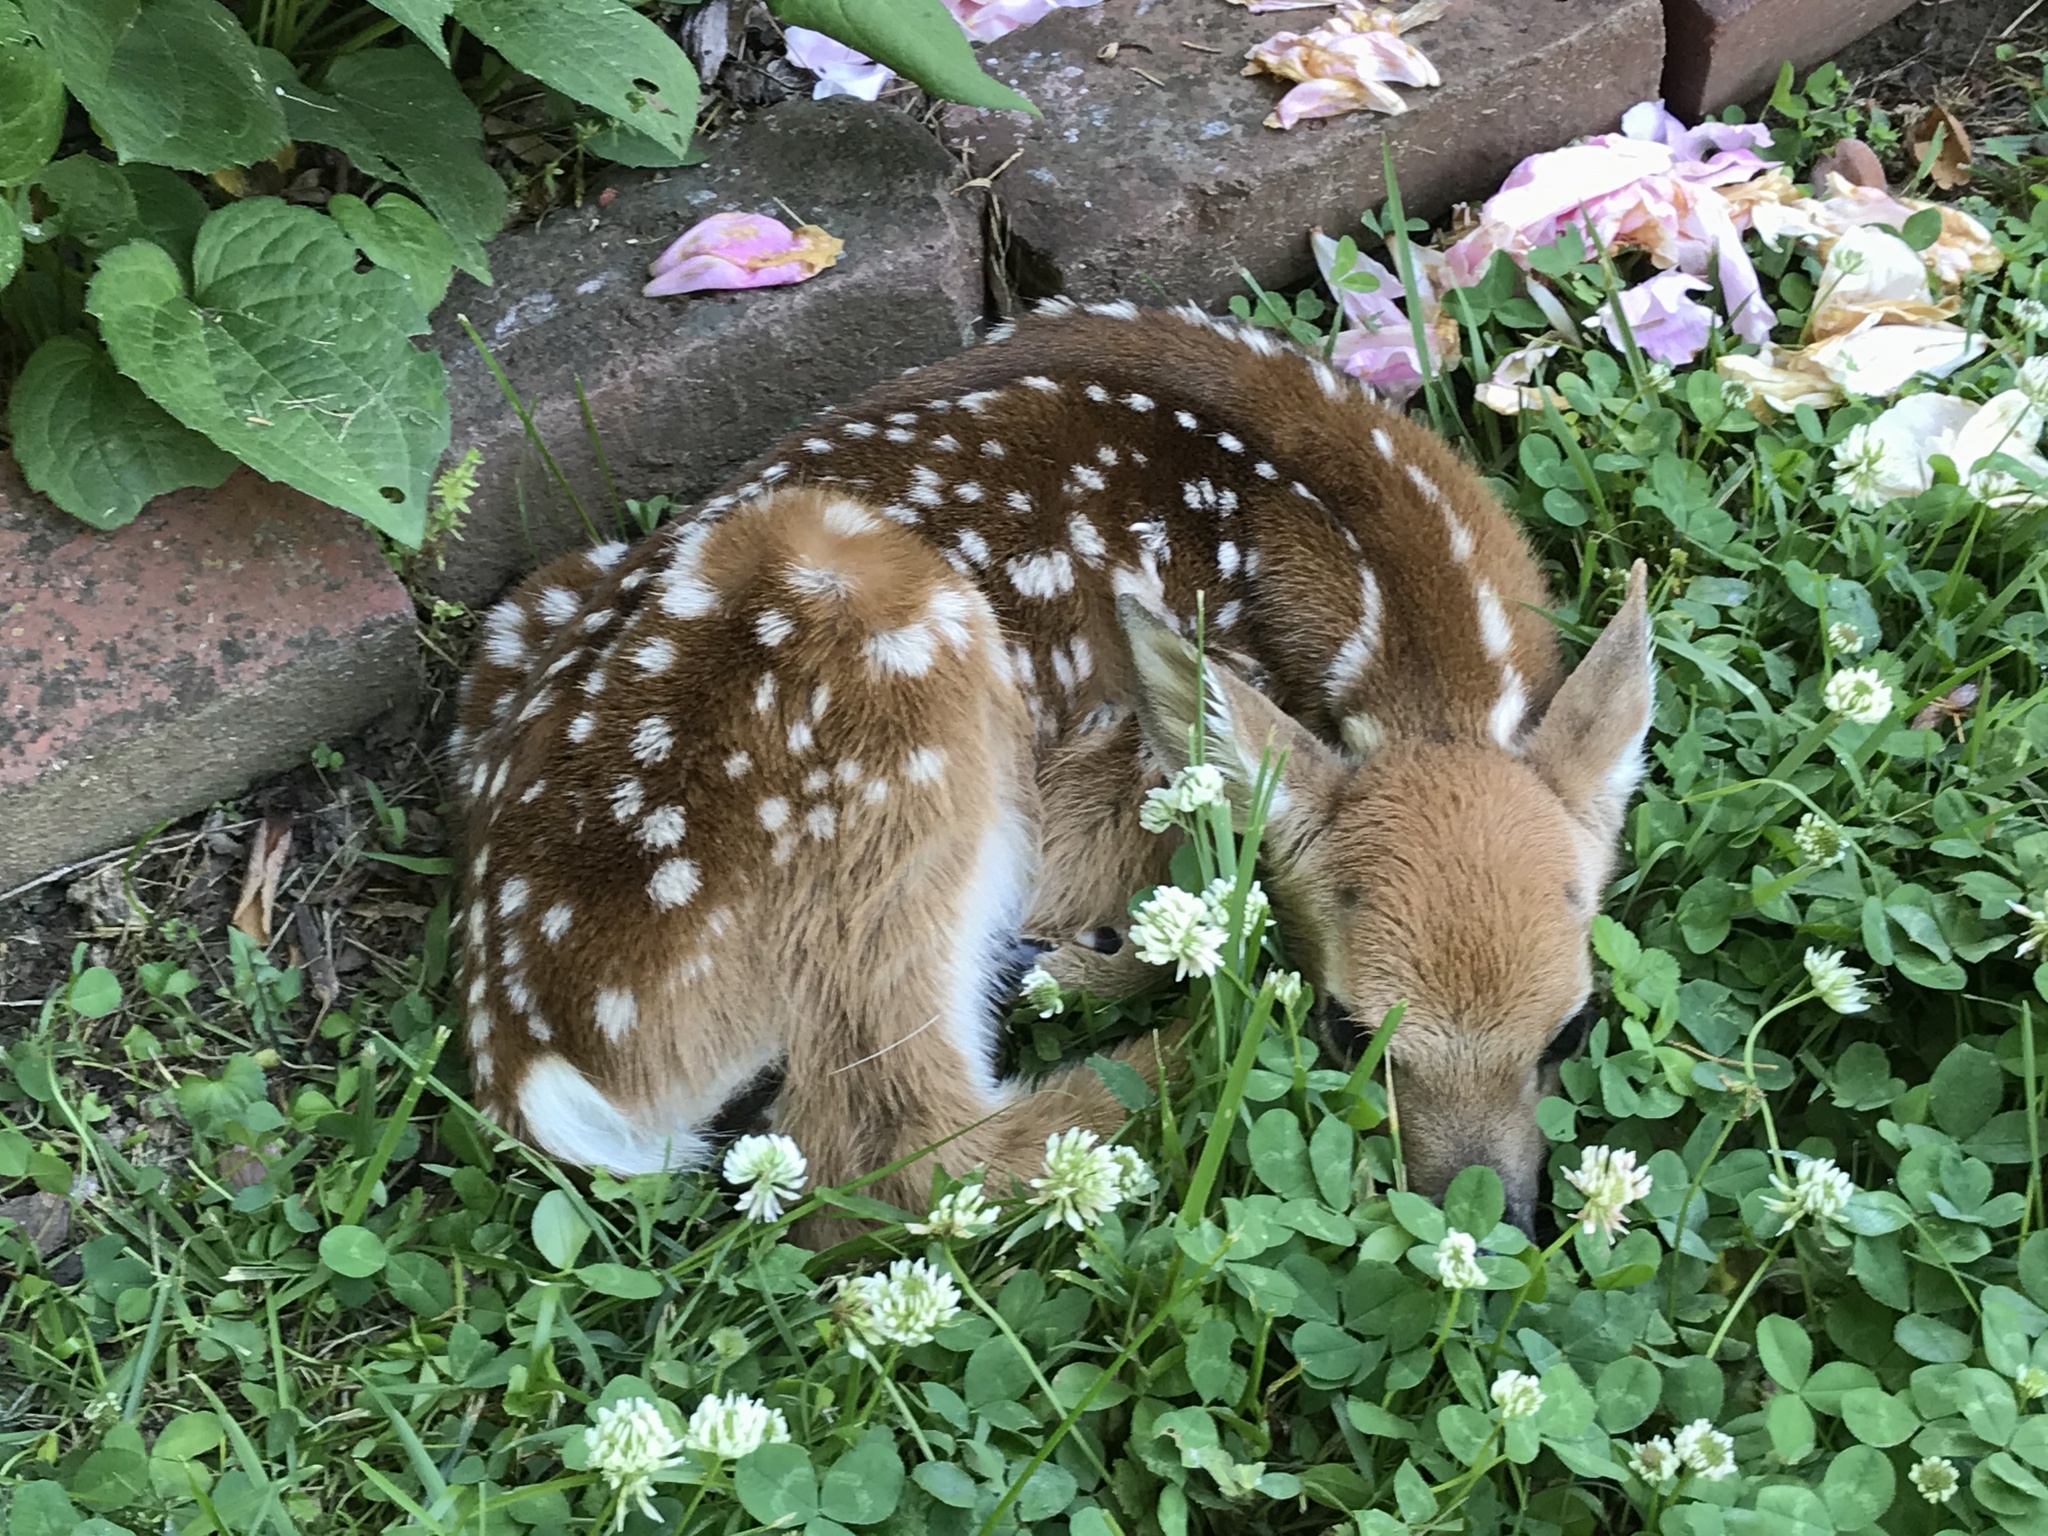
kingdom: Animalia
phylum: Chordata
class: Mammalia
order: Artiodactyla
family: Cervidae
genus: Odocoileus
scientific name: Odocoileus virginianus
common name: White-tailed deer
